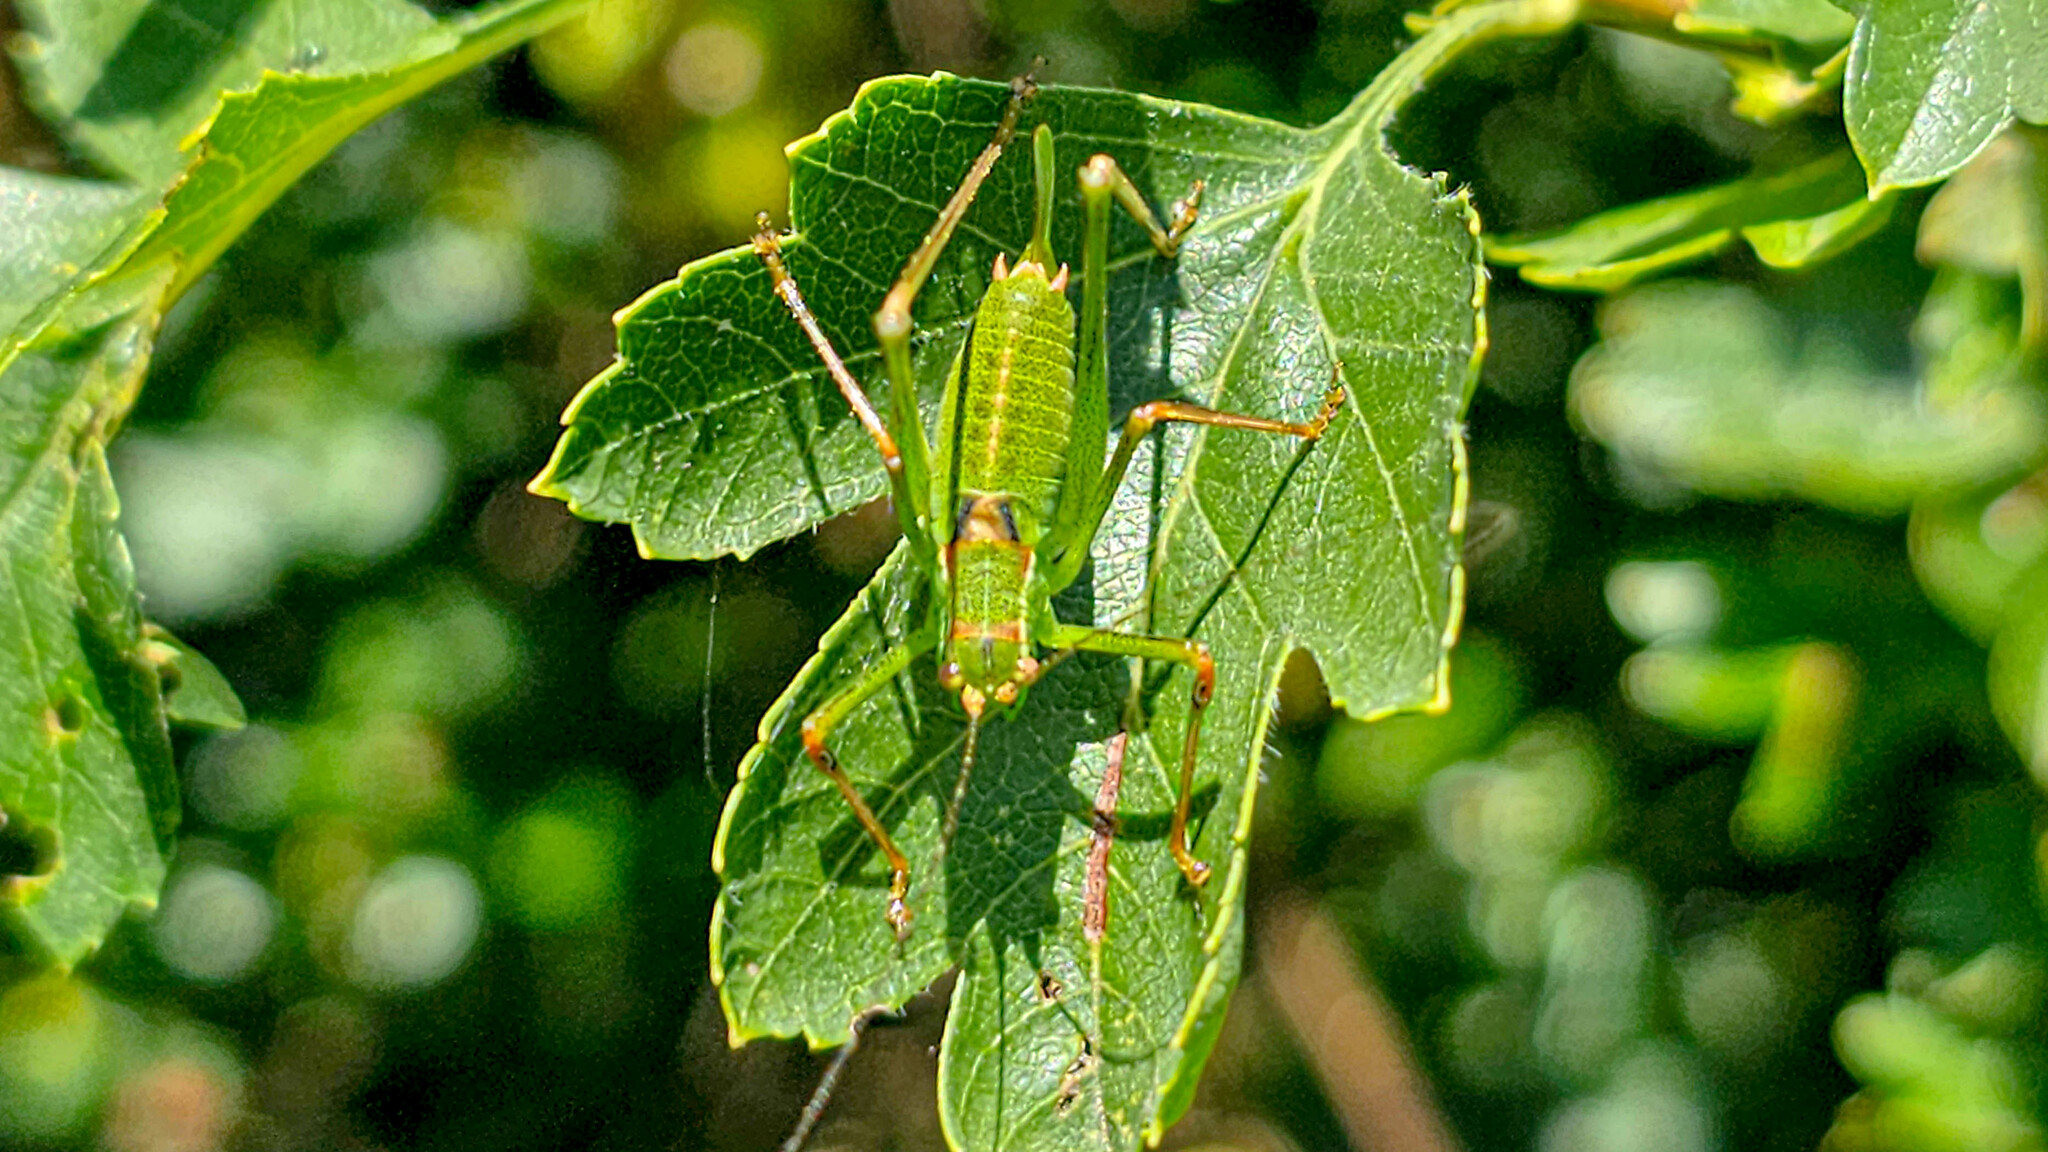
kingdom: Animalia
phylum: Arthropoda
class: Insecta
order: Orthoptera
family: Tettigoniidae
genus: Leptophyes
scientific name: Leptophyes punctatissima
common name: Speckled bush-cricket
